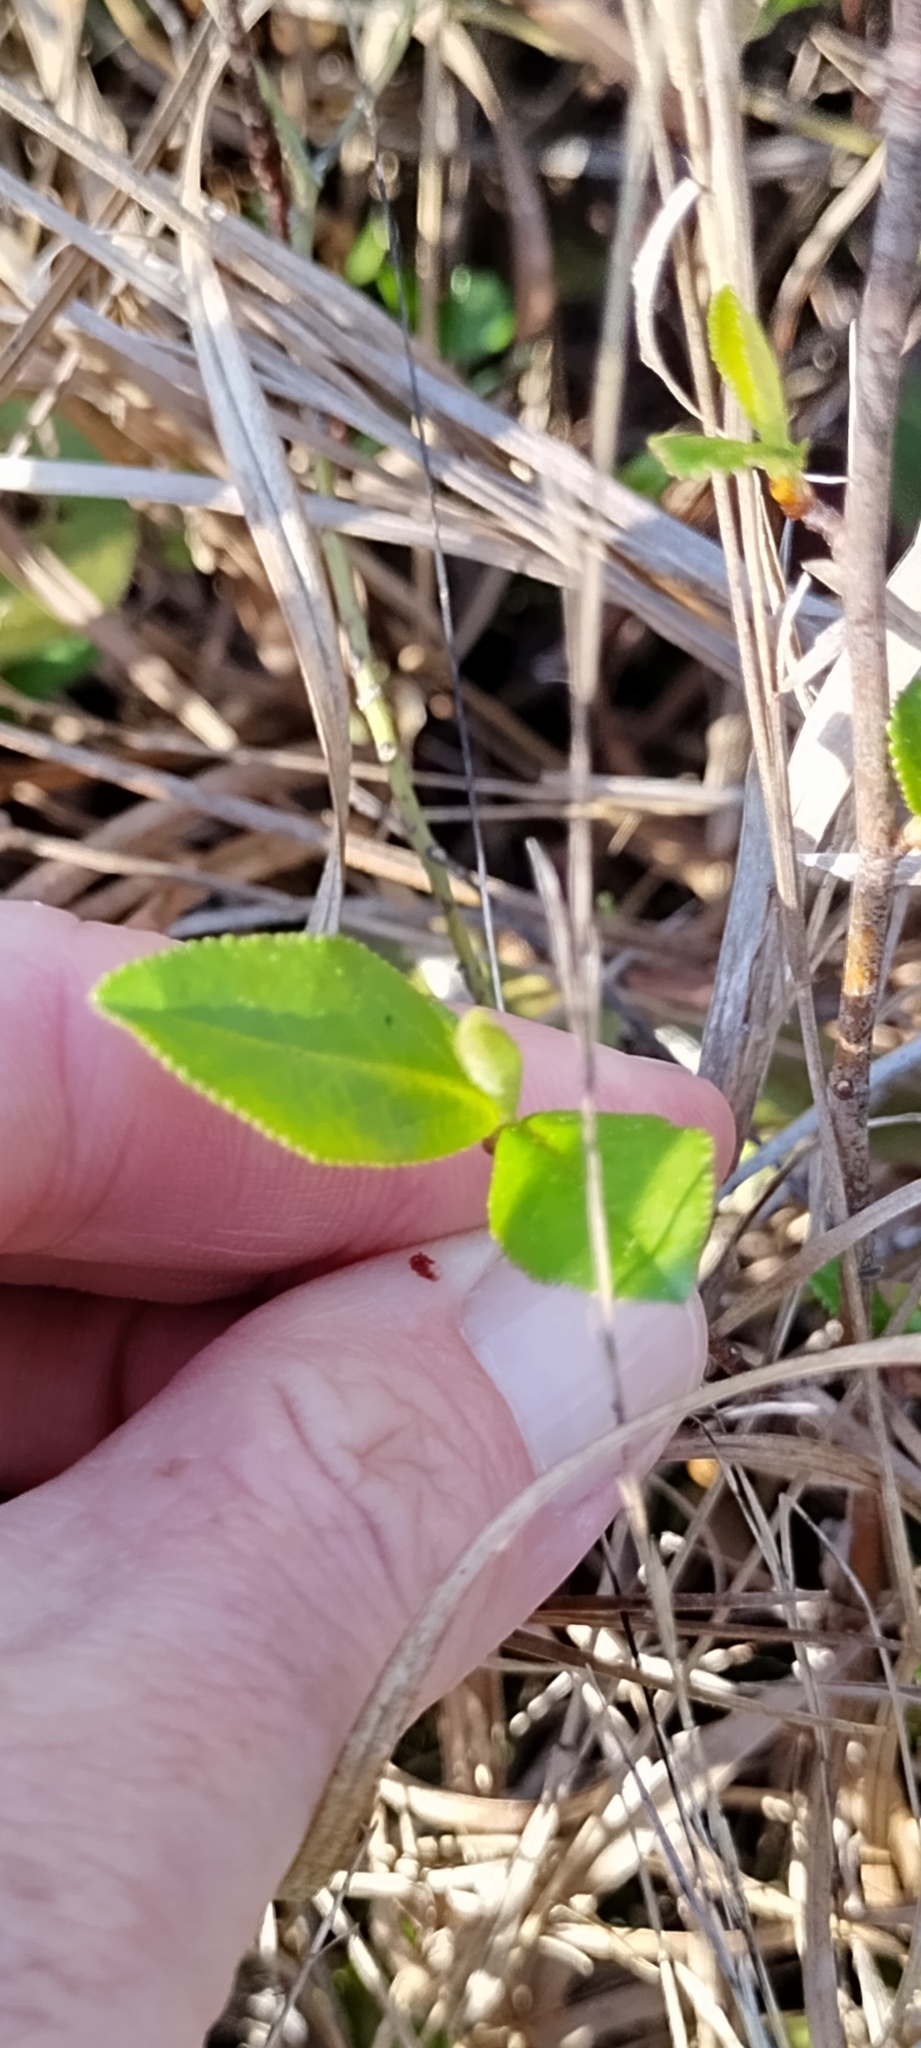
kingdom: Plantae
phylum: Tracheophyta
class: Magnoliopsida
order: Rosales
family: Rosaceae
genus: Aronia
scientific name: Aronia arbutifolia
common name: Red chokeberry
